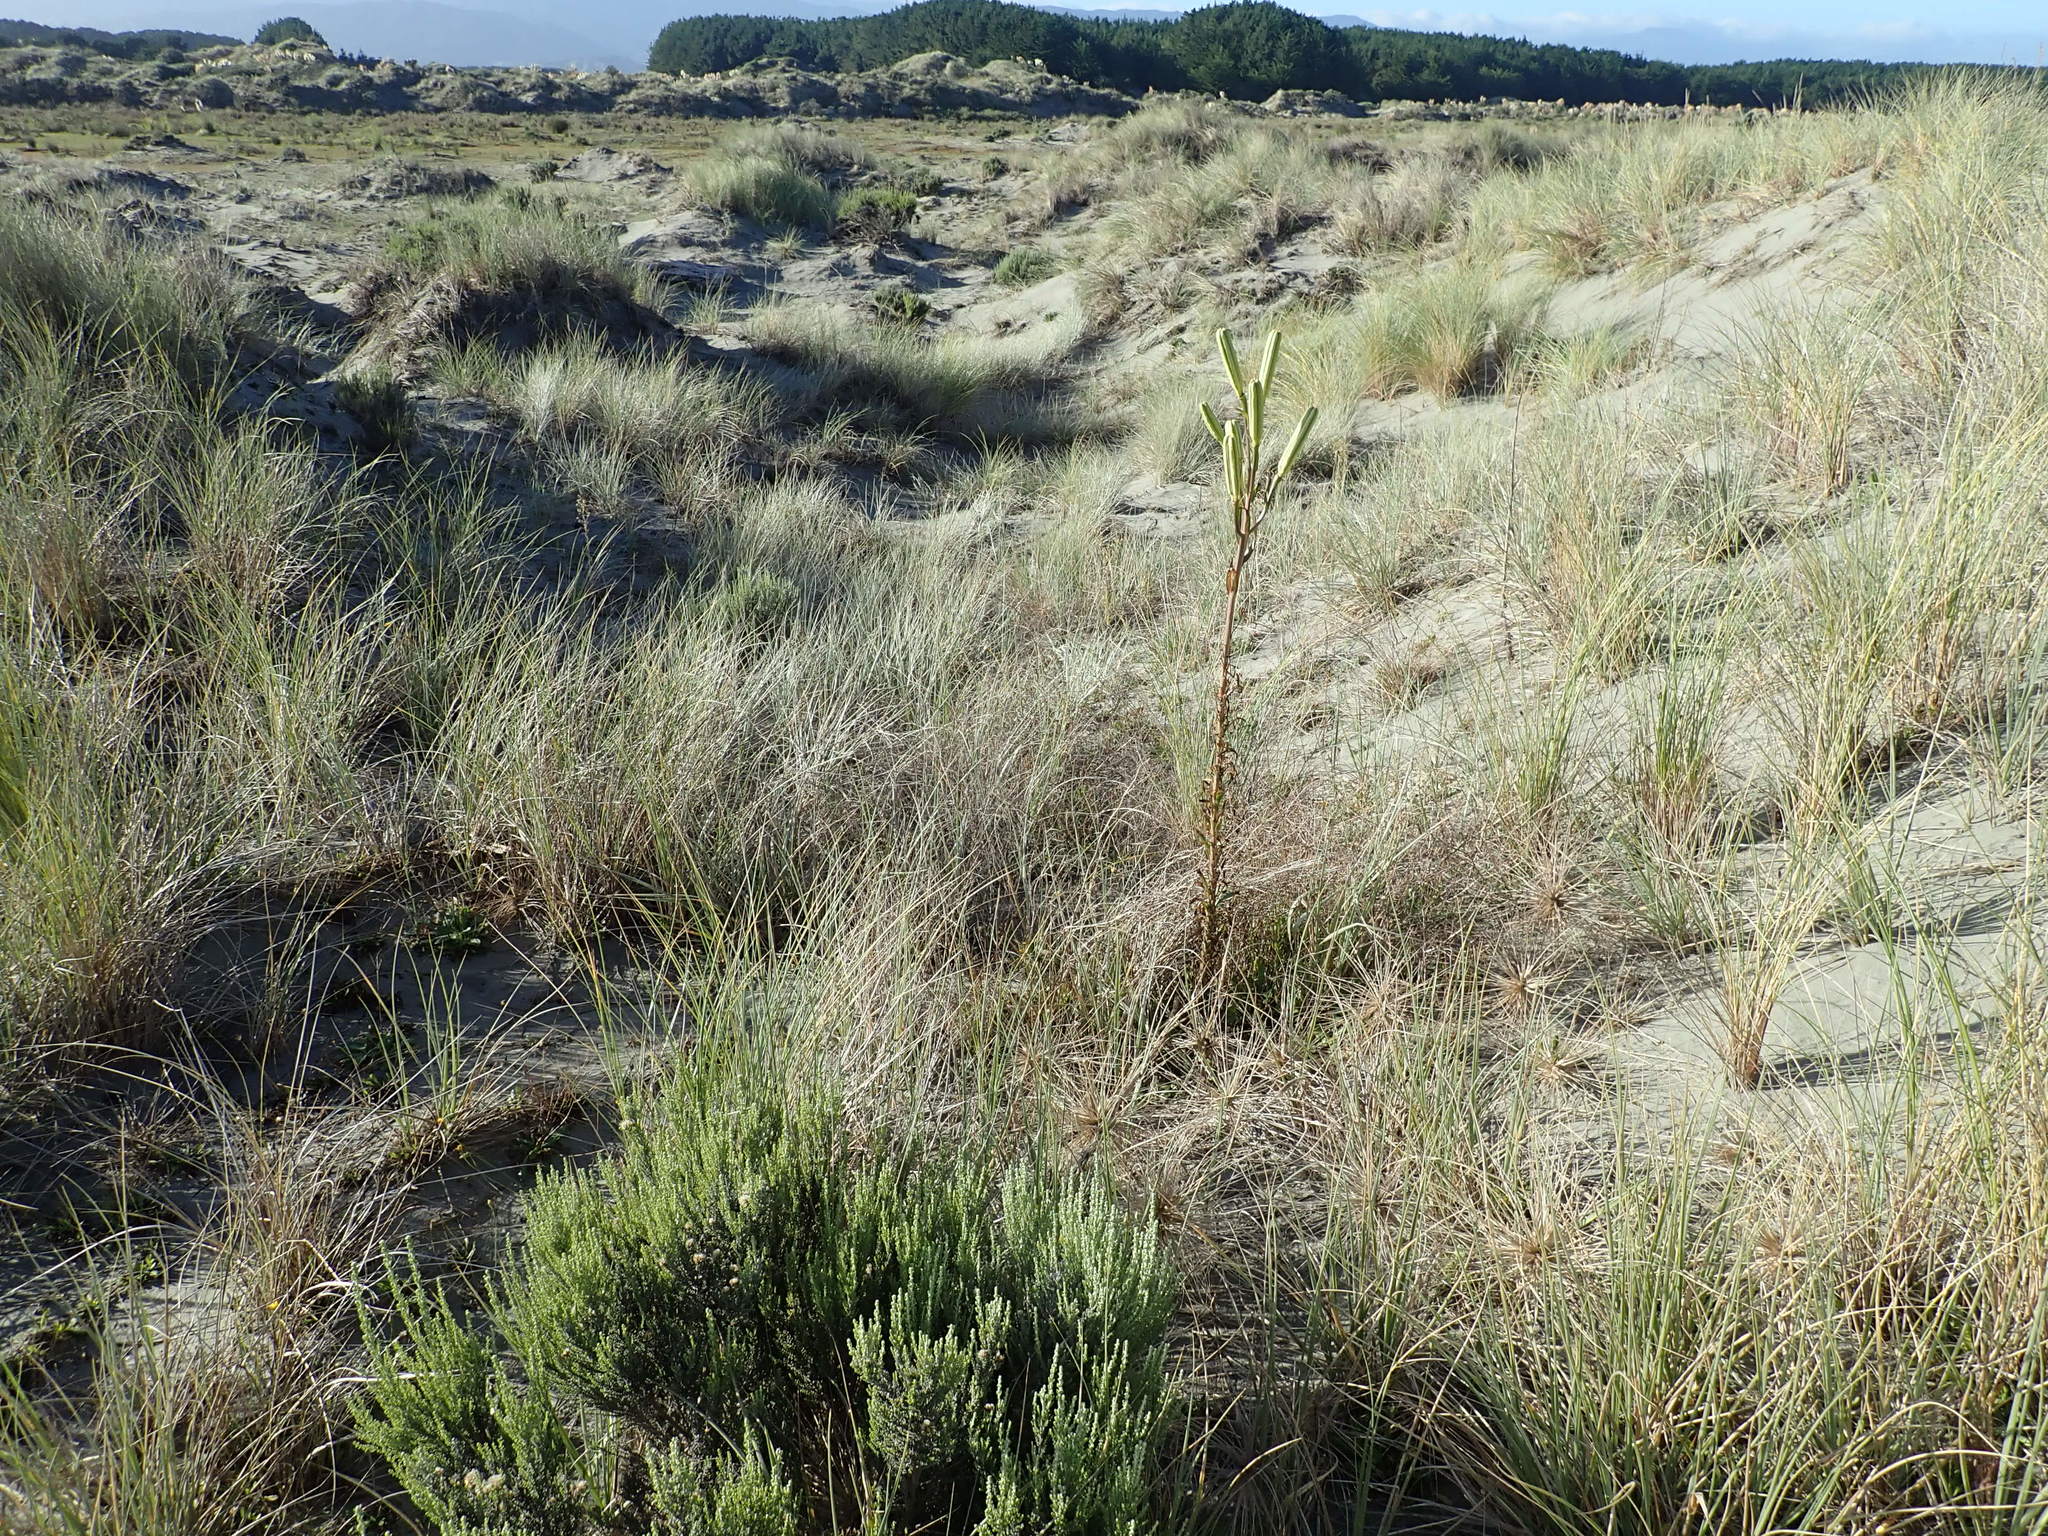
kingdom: Plantae
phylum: Tracheophyta
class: Liliopsida
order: Liliales
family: Liliaceae
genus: Lilium
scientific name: Lilium formosanum
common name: Formosa lily
